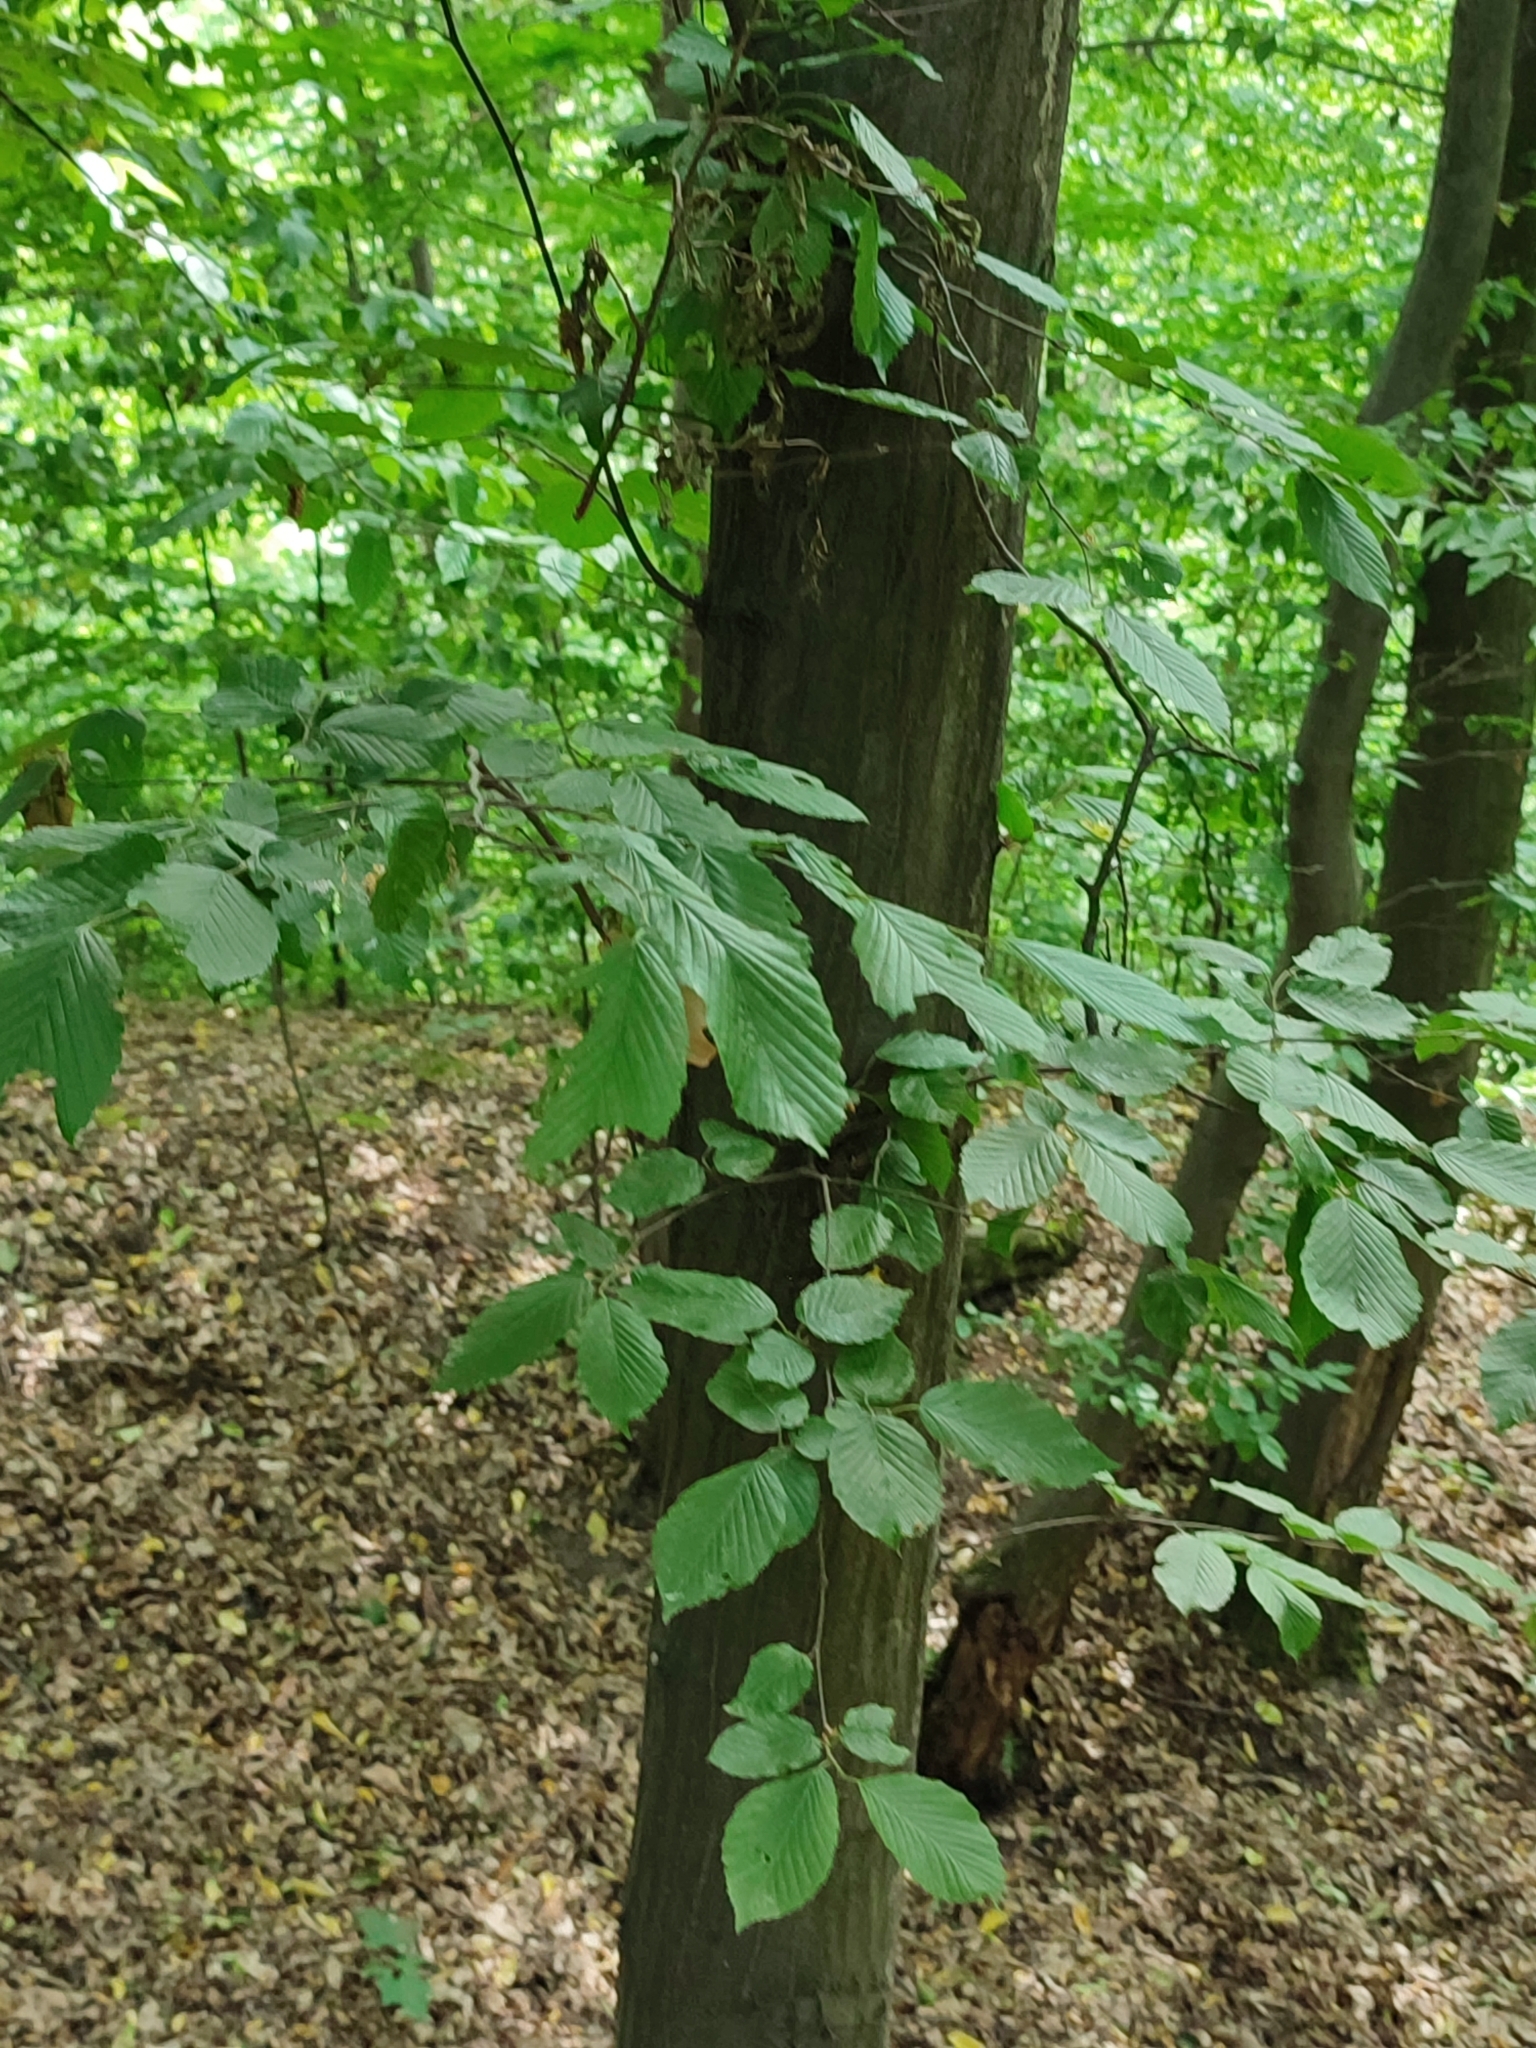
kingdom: Plantae
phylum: Tracheophyta
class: Magnoliopsida
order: Fagales
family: Betulaceae
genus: Carpinus
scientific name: Carpinus betulus
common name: Hornbeam
